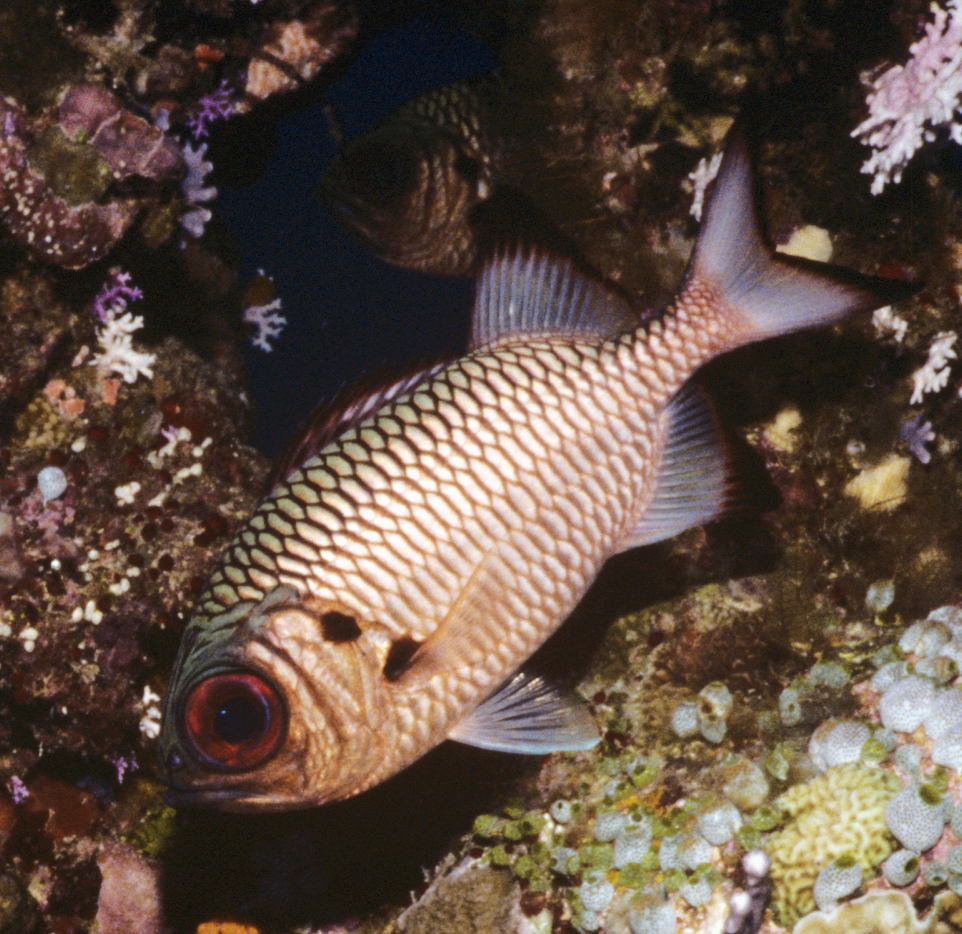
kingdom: Animalia
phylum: Chordata
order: Beryciformes
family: Holocentridae
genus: Myripristis
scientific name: Myripristis adusta
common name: Blackfin soldierfish
